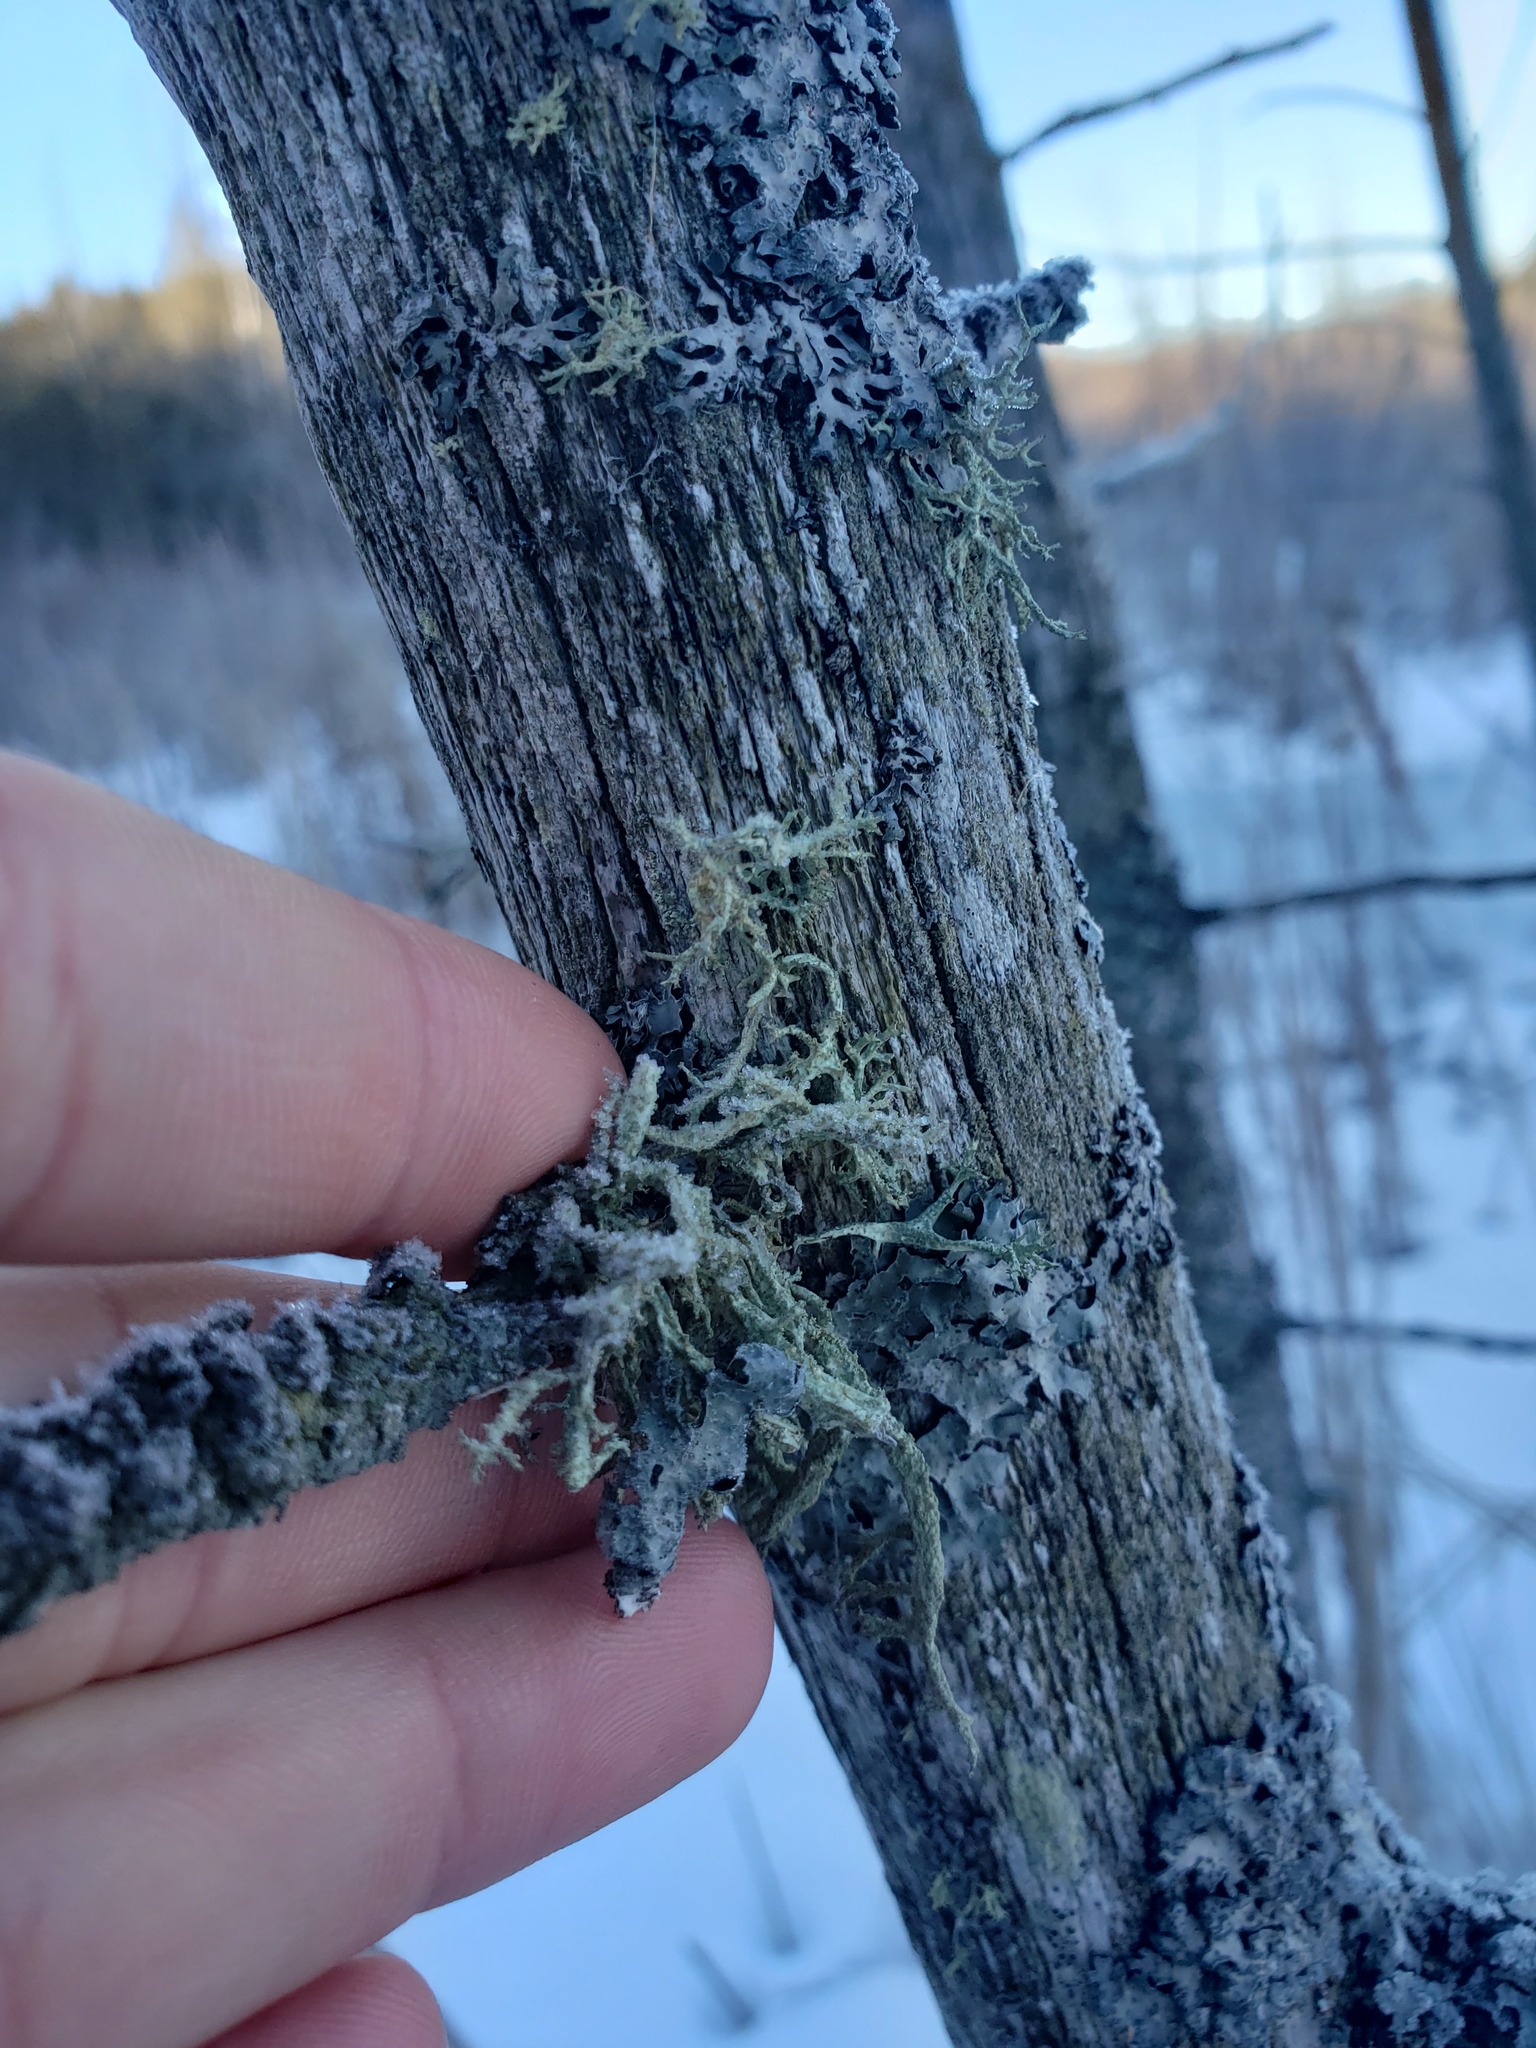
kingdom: Fungi
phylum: Ascomycota
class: Lecanoromycetes
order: Lecanorales
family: Parmeliaceae
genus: Evernia
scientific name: Evernia mesomorpha
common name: Boreal oak moss lichen
